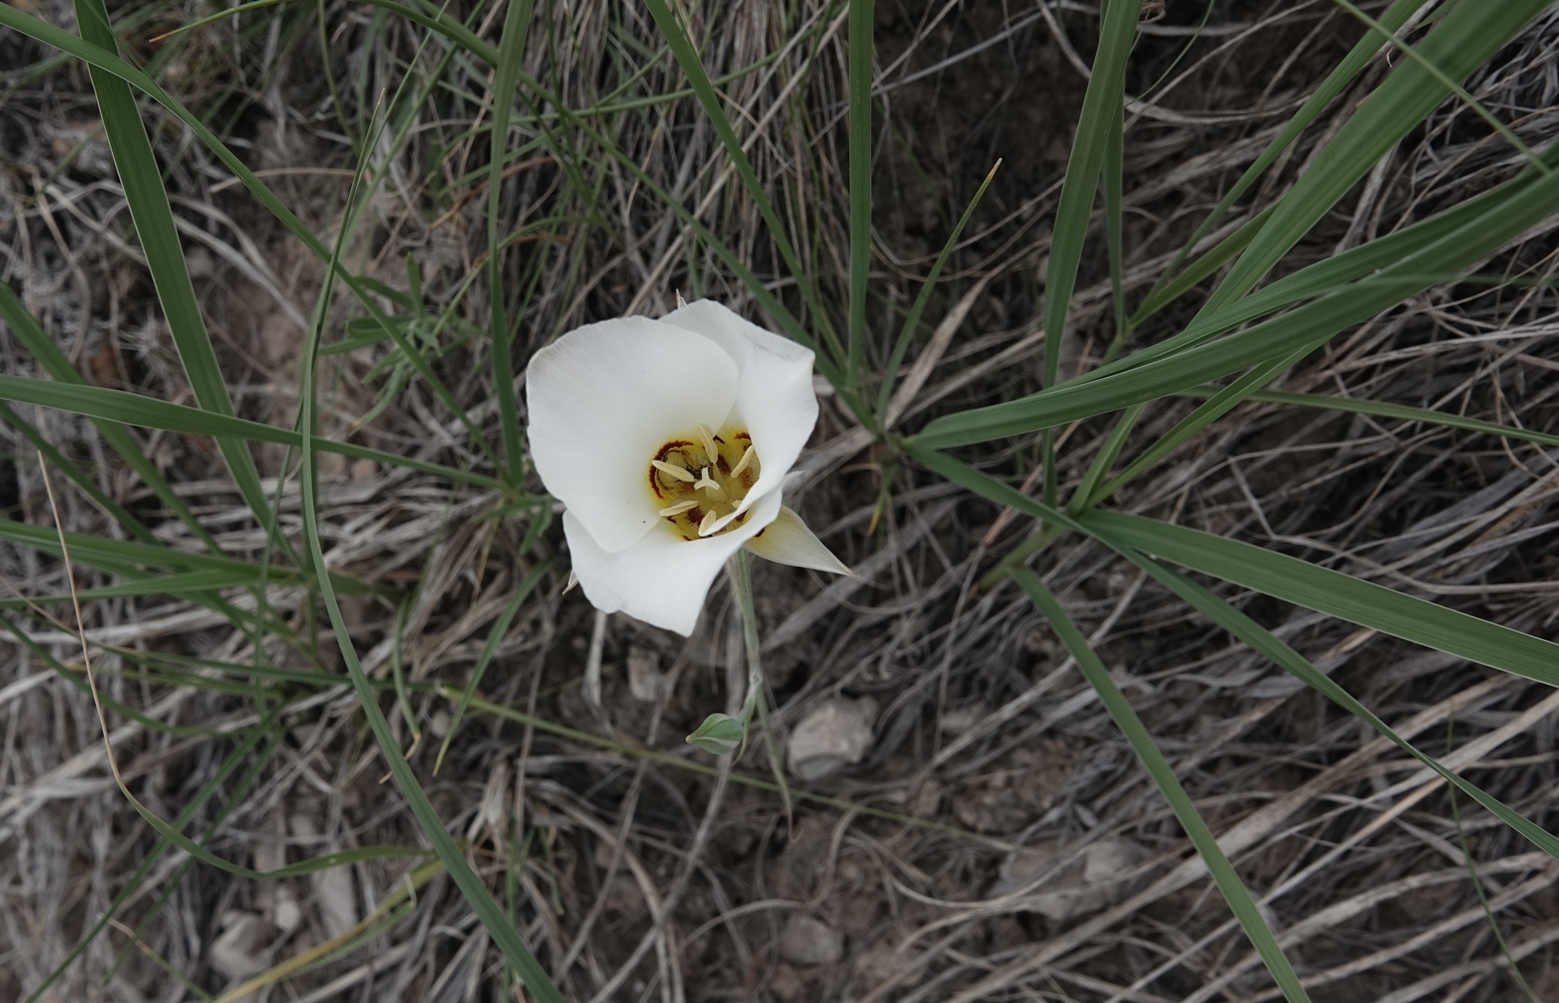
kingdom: Plantae
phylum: Tracheophyta
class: Liliopsida
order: Liliales
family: Liliaceae
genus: Calochortus
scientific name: Calochortus nuttallii
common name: Sego-lily
